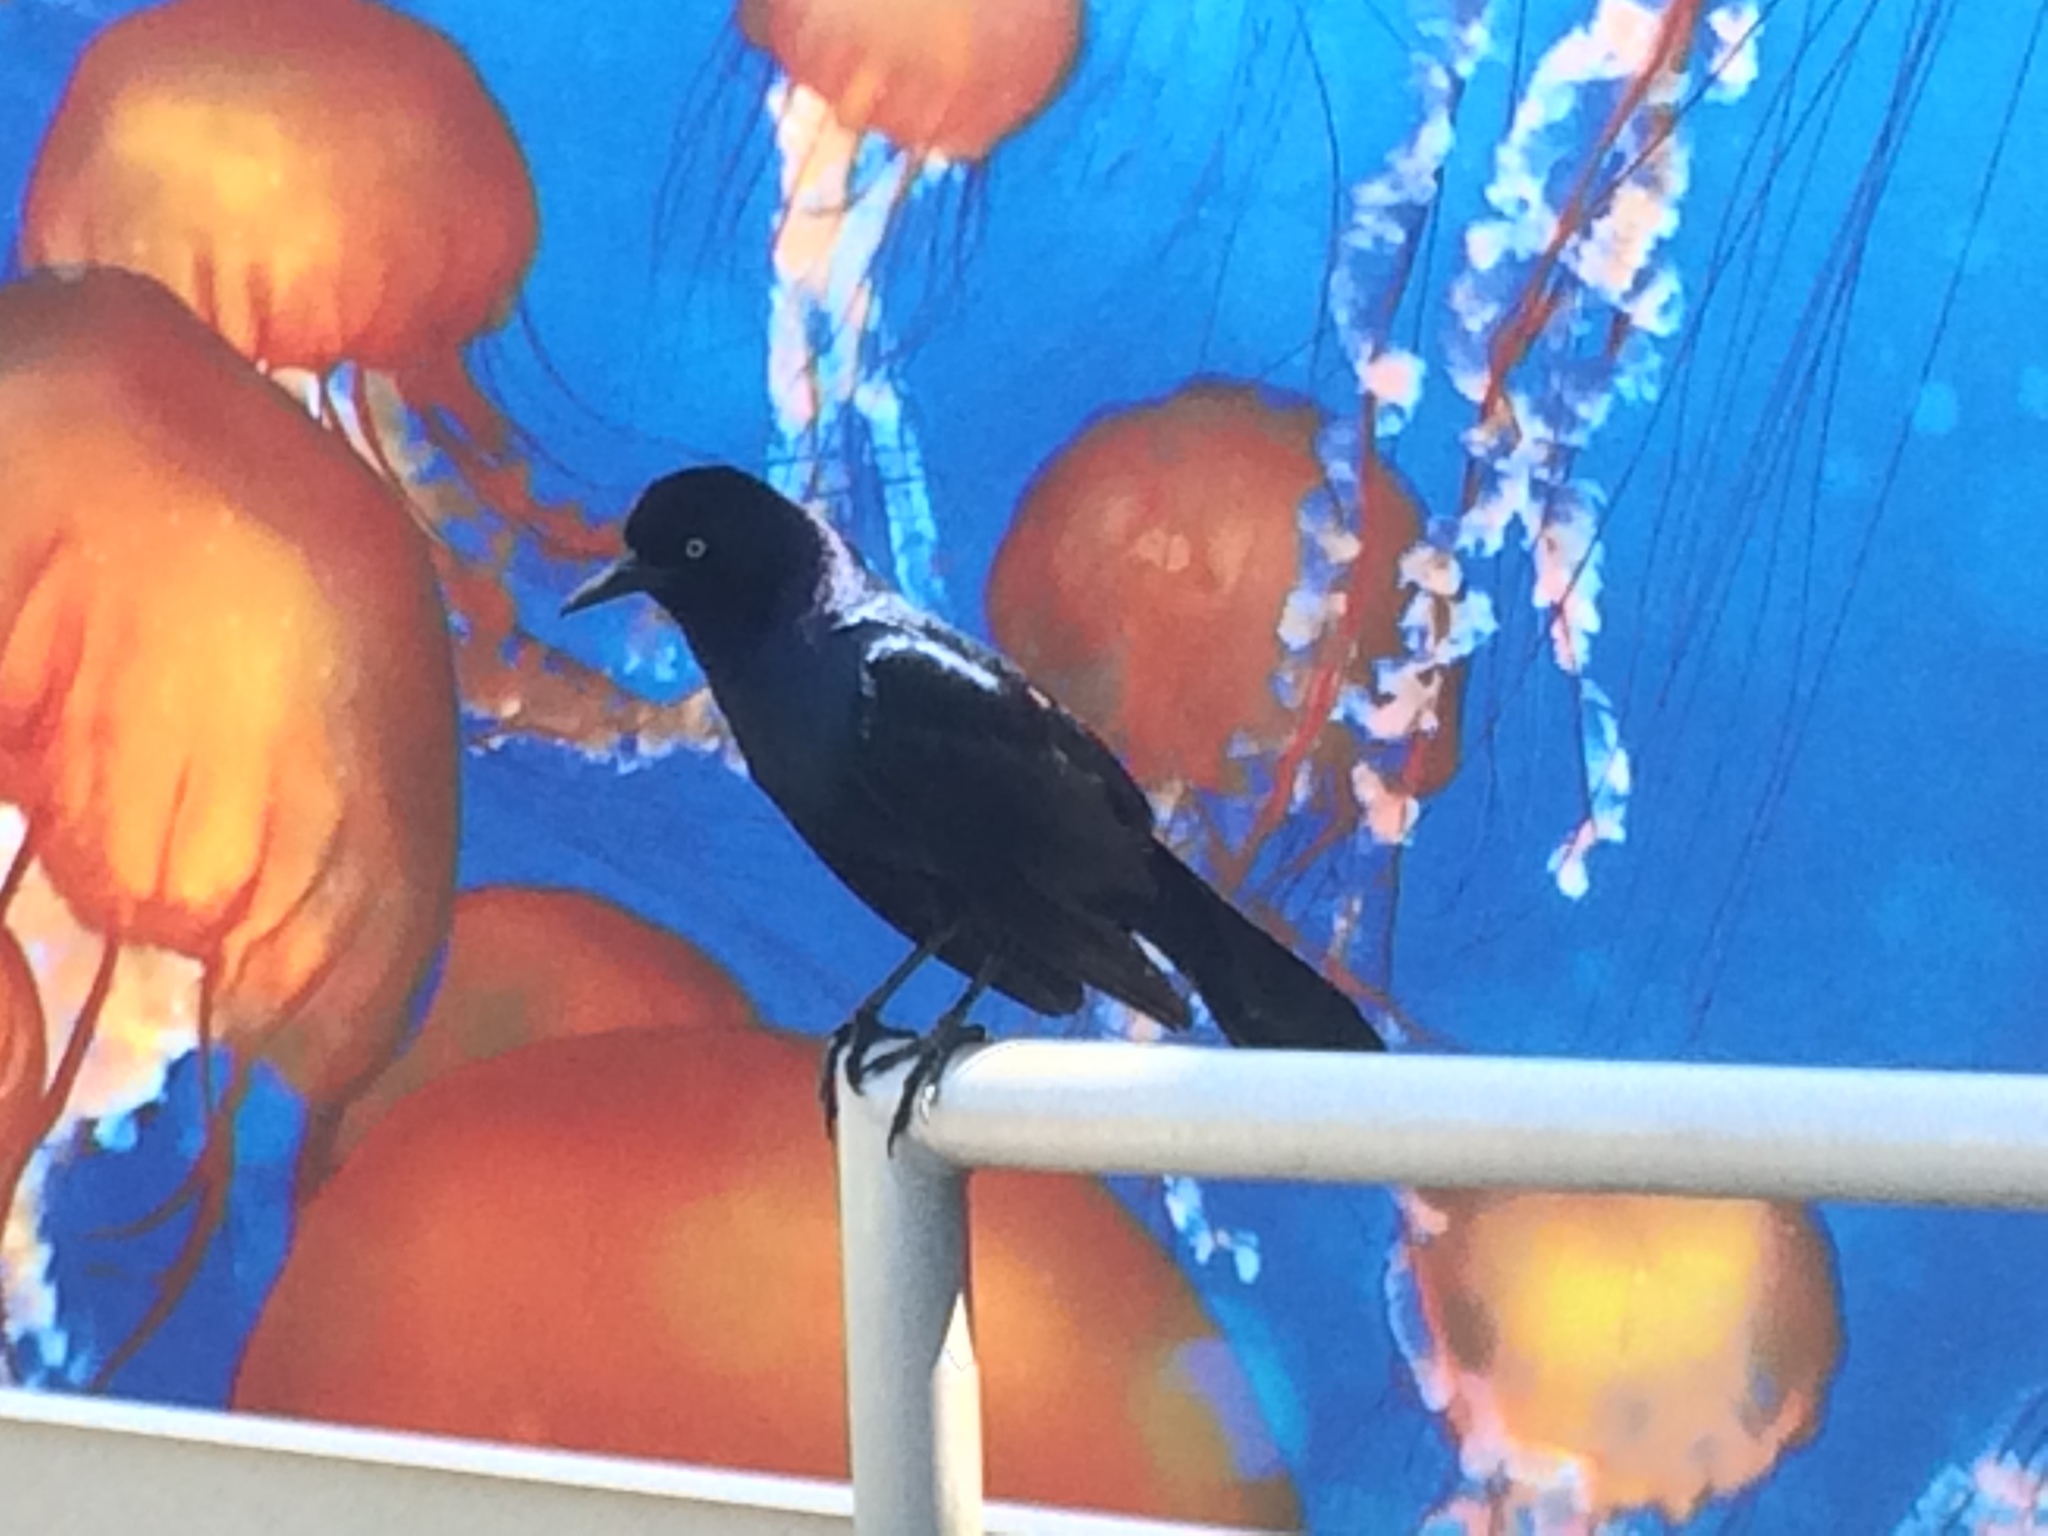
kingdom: Animalia
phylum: Chordata
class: Aves
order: Passeriformes
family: Icteridae
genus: Quiscalus
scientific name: Quiscalus major
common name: Boat-tailed grackle
